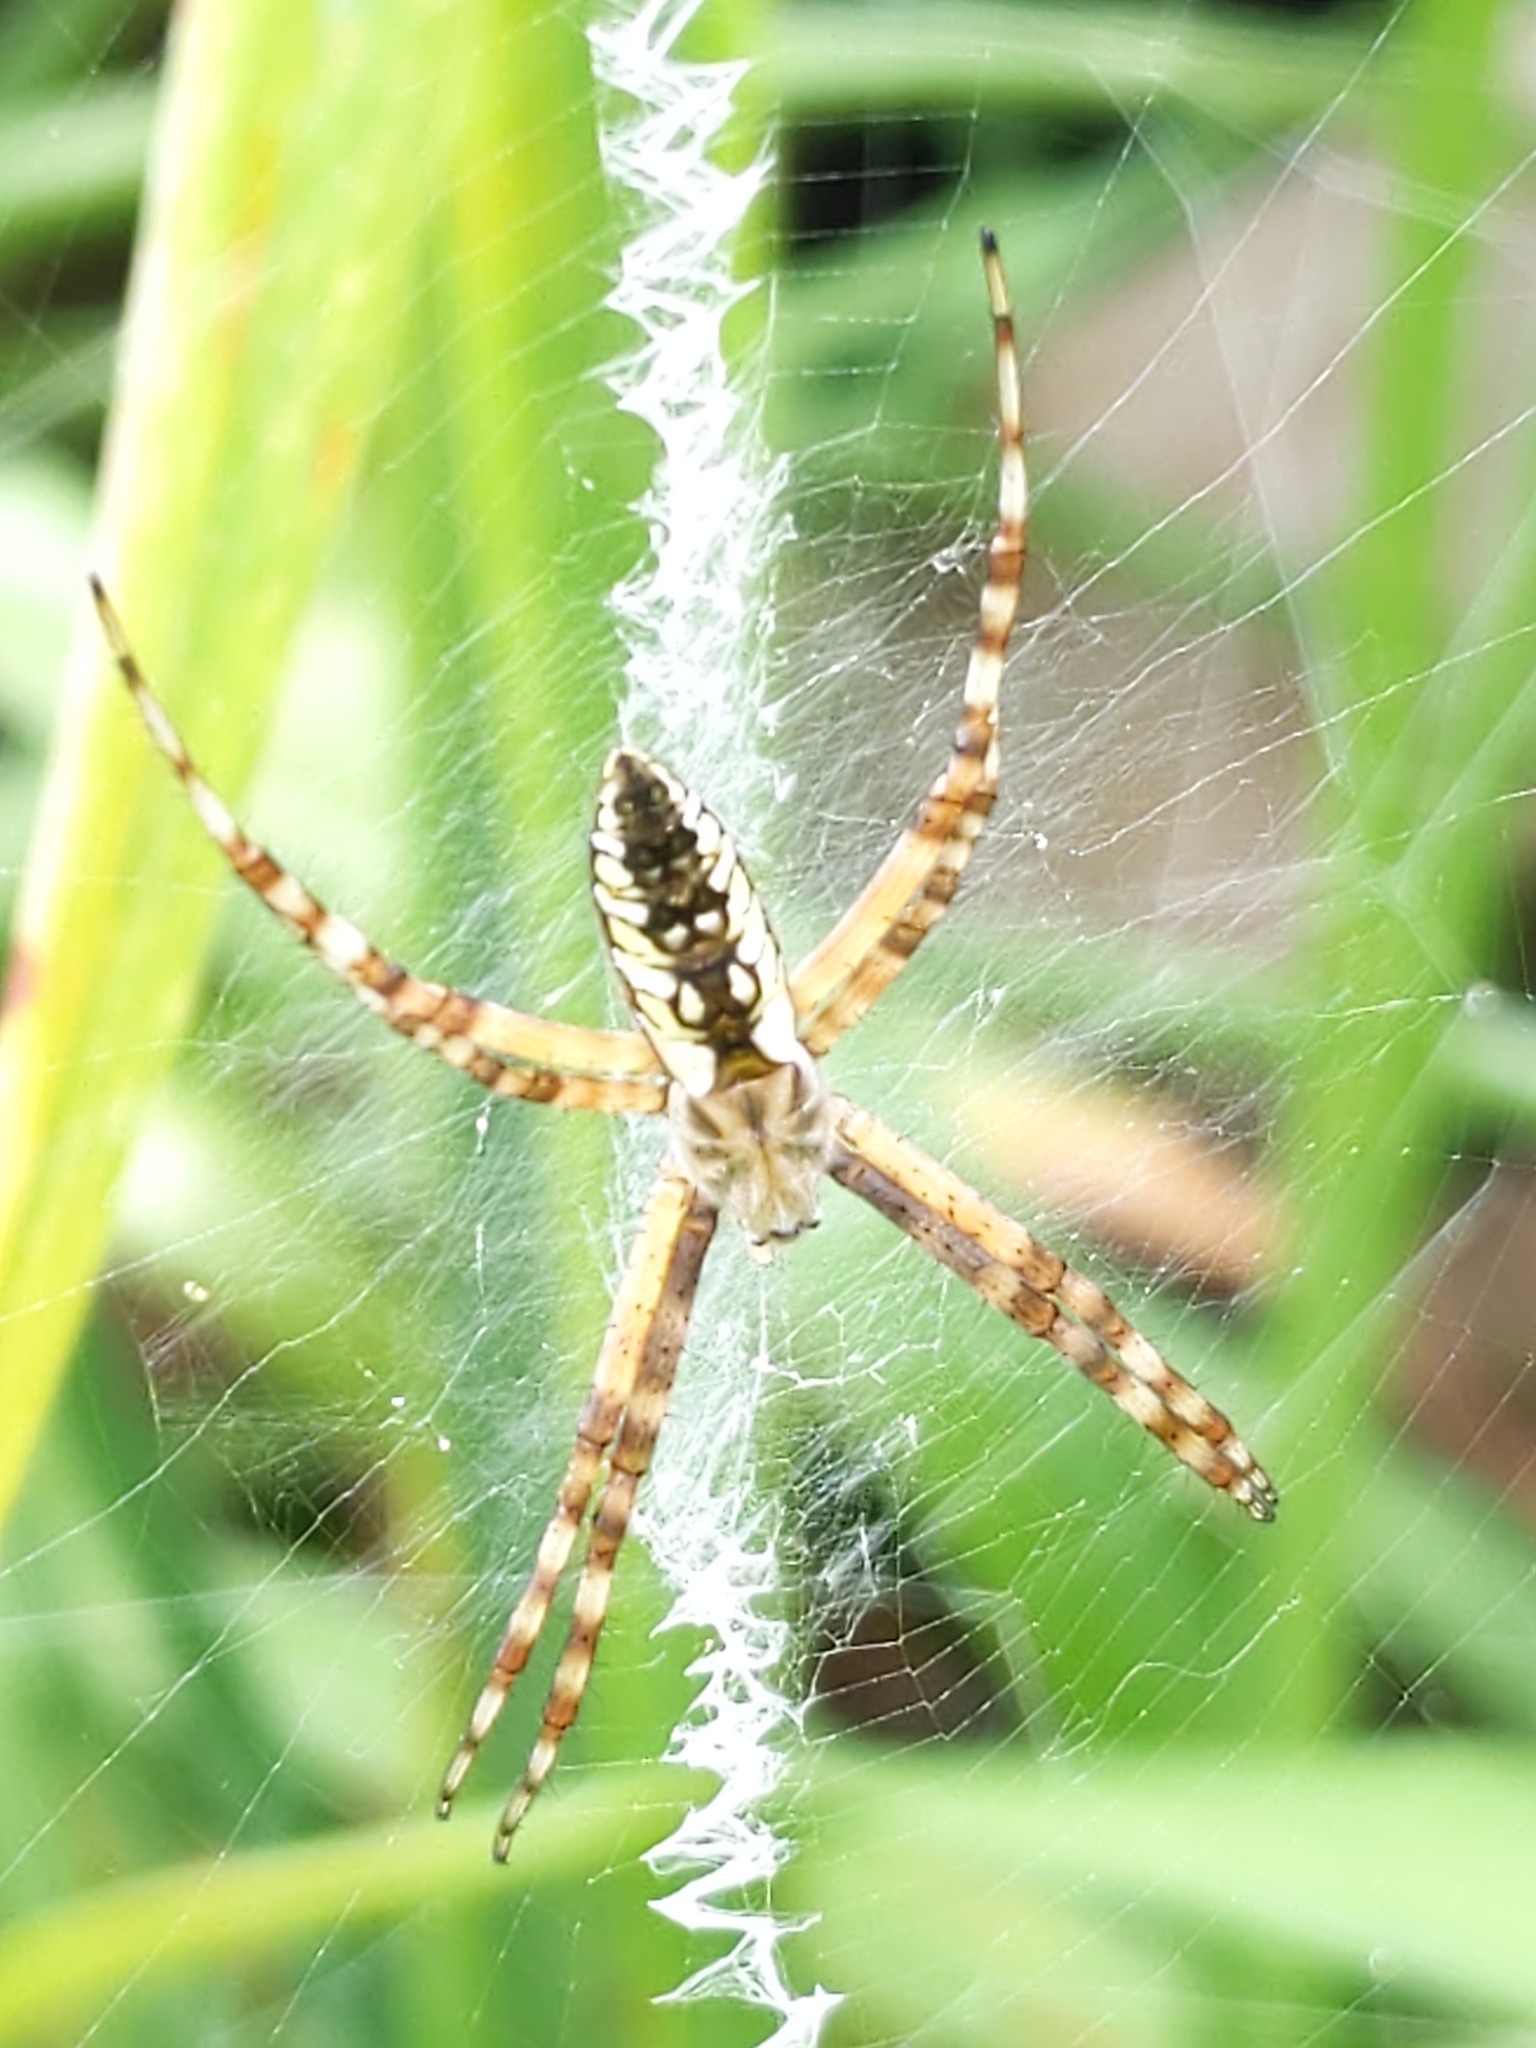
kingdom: Animalia
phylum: Arthropoda
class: Arachnida
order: Araneae
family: Araneidae
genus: Argiope
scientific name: Argiope aurantia
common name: Orb weavers
